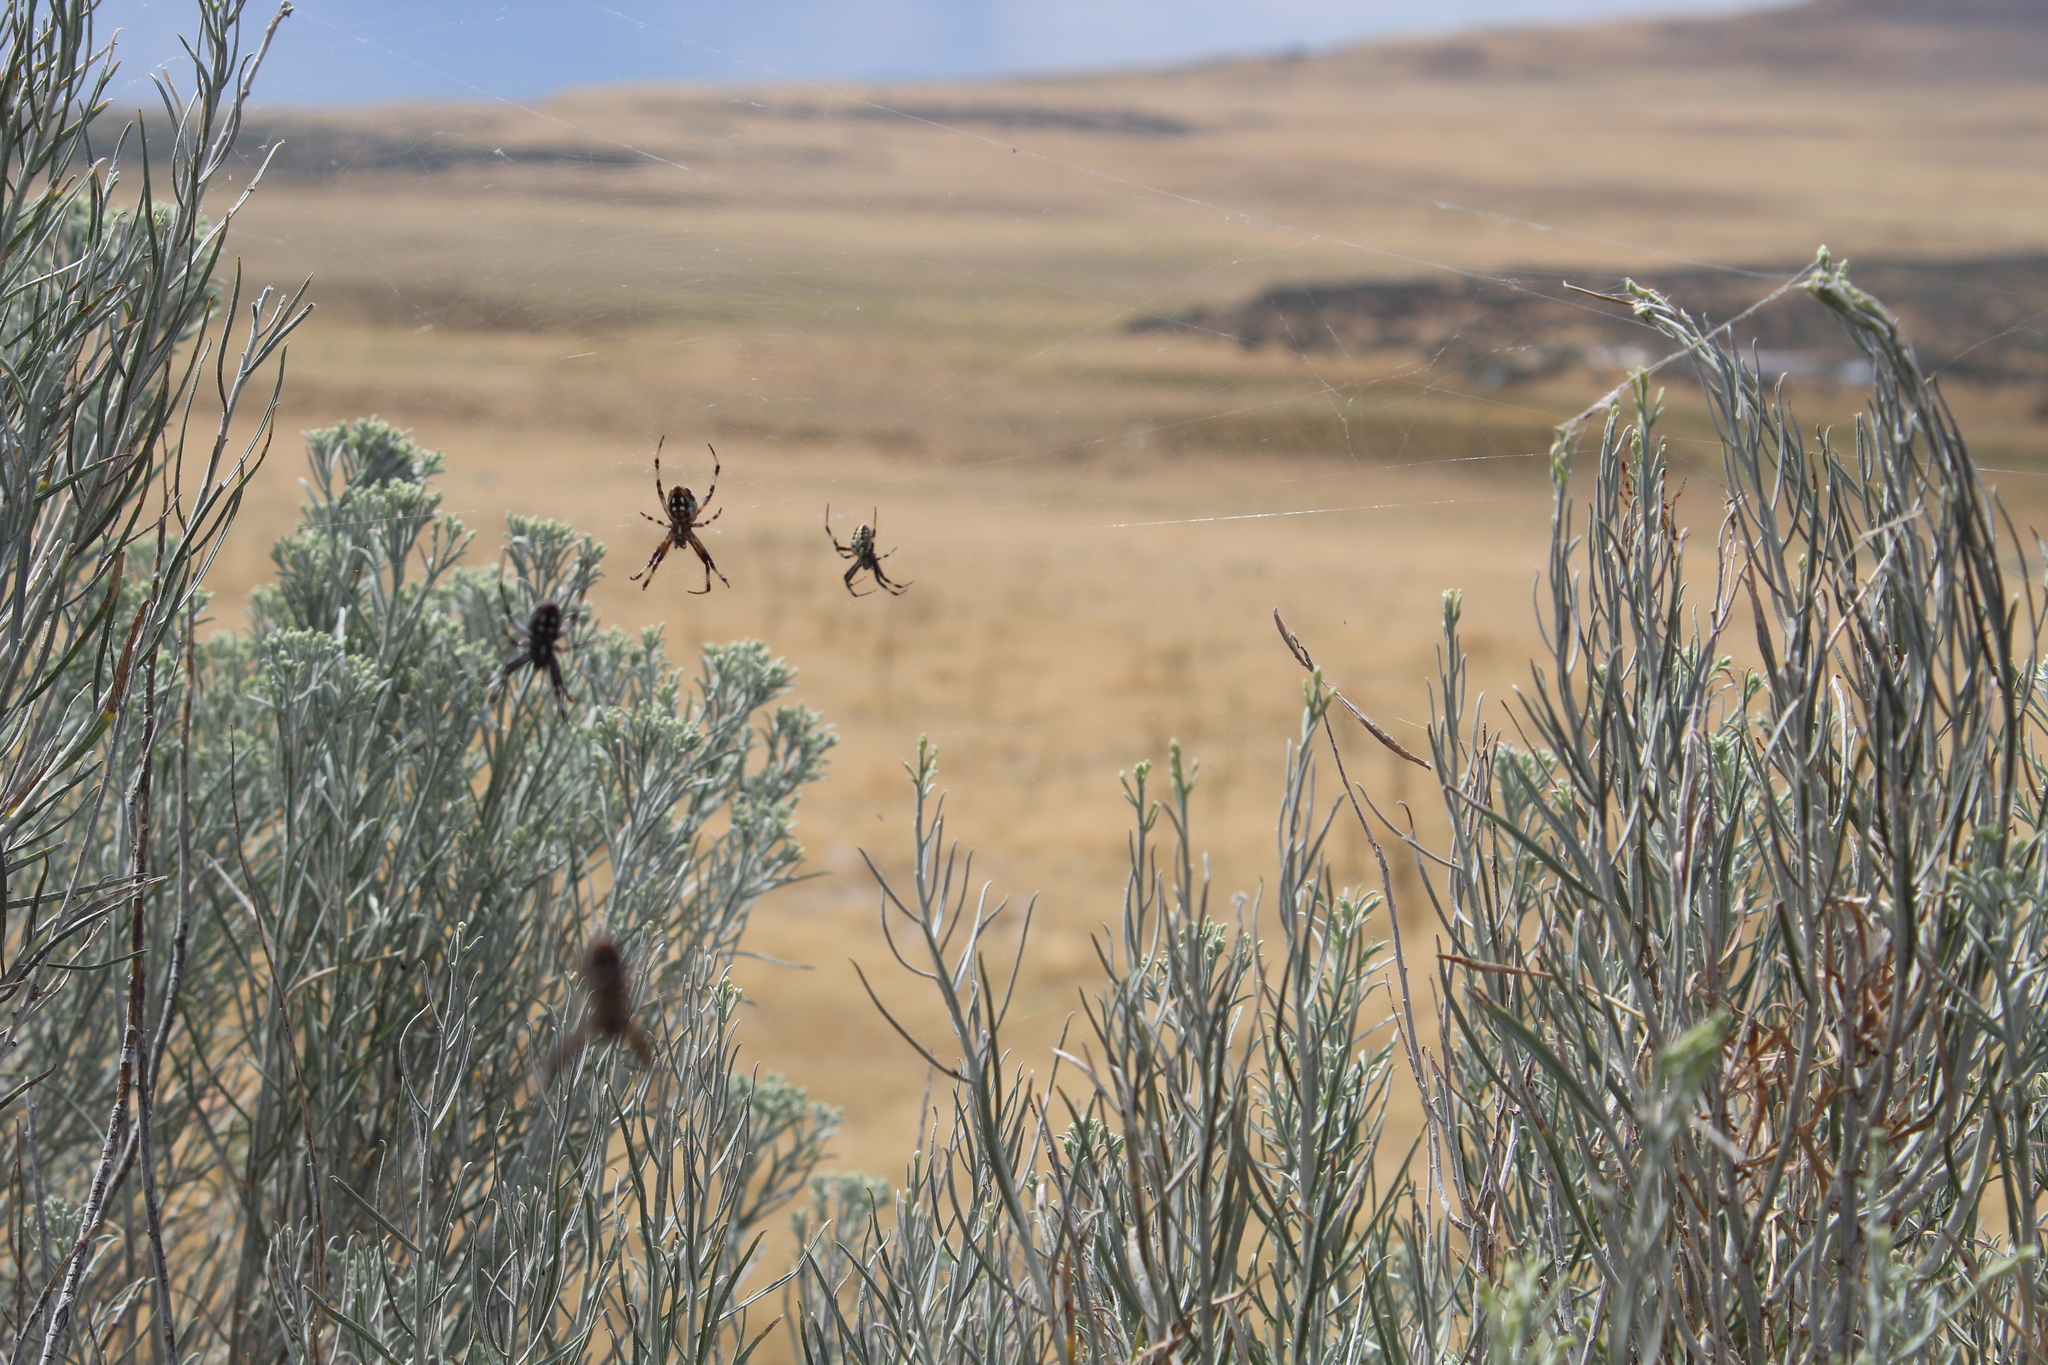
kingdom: Animalia
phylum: Arthropoda
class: Arachnida
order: Araneae
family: Araneidae
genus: Neoscona
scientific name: Neoscona oaxacensis
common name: Orb weavers
